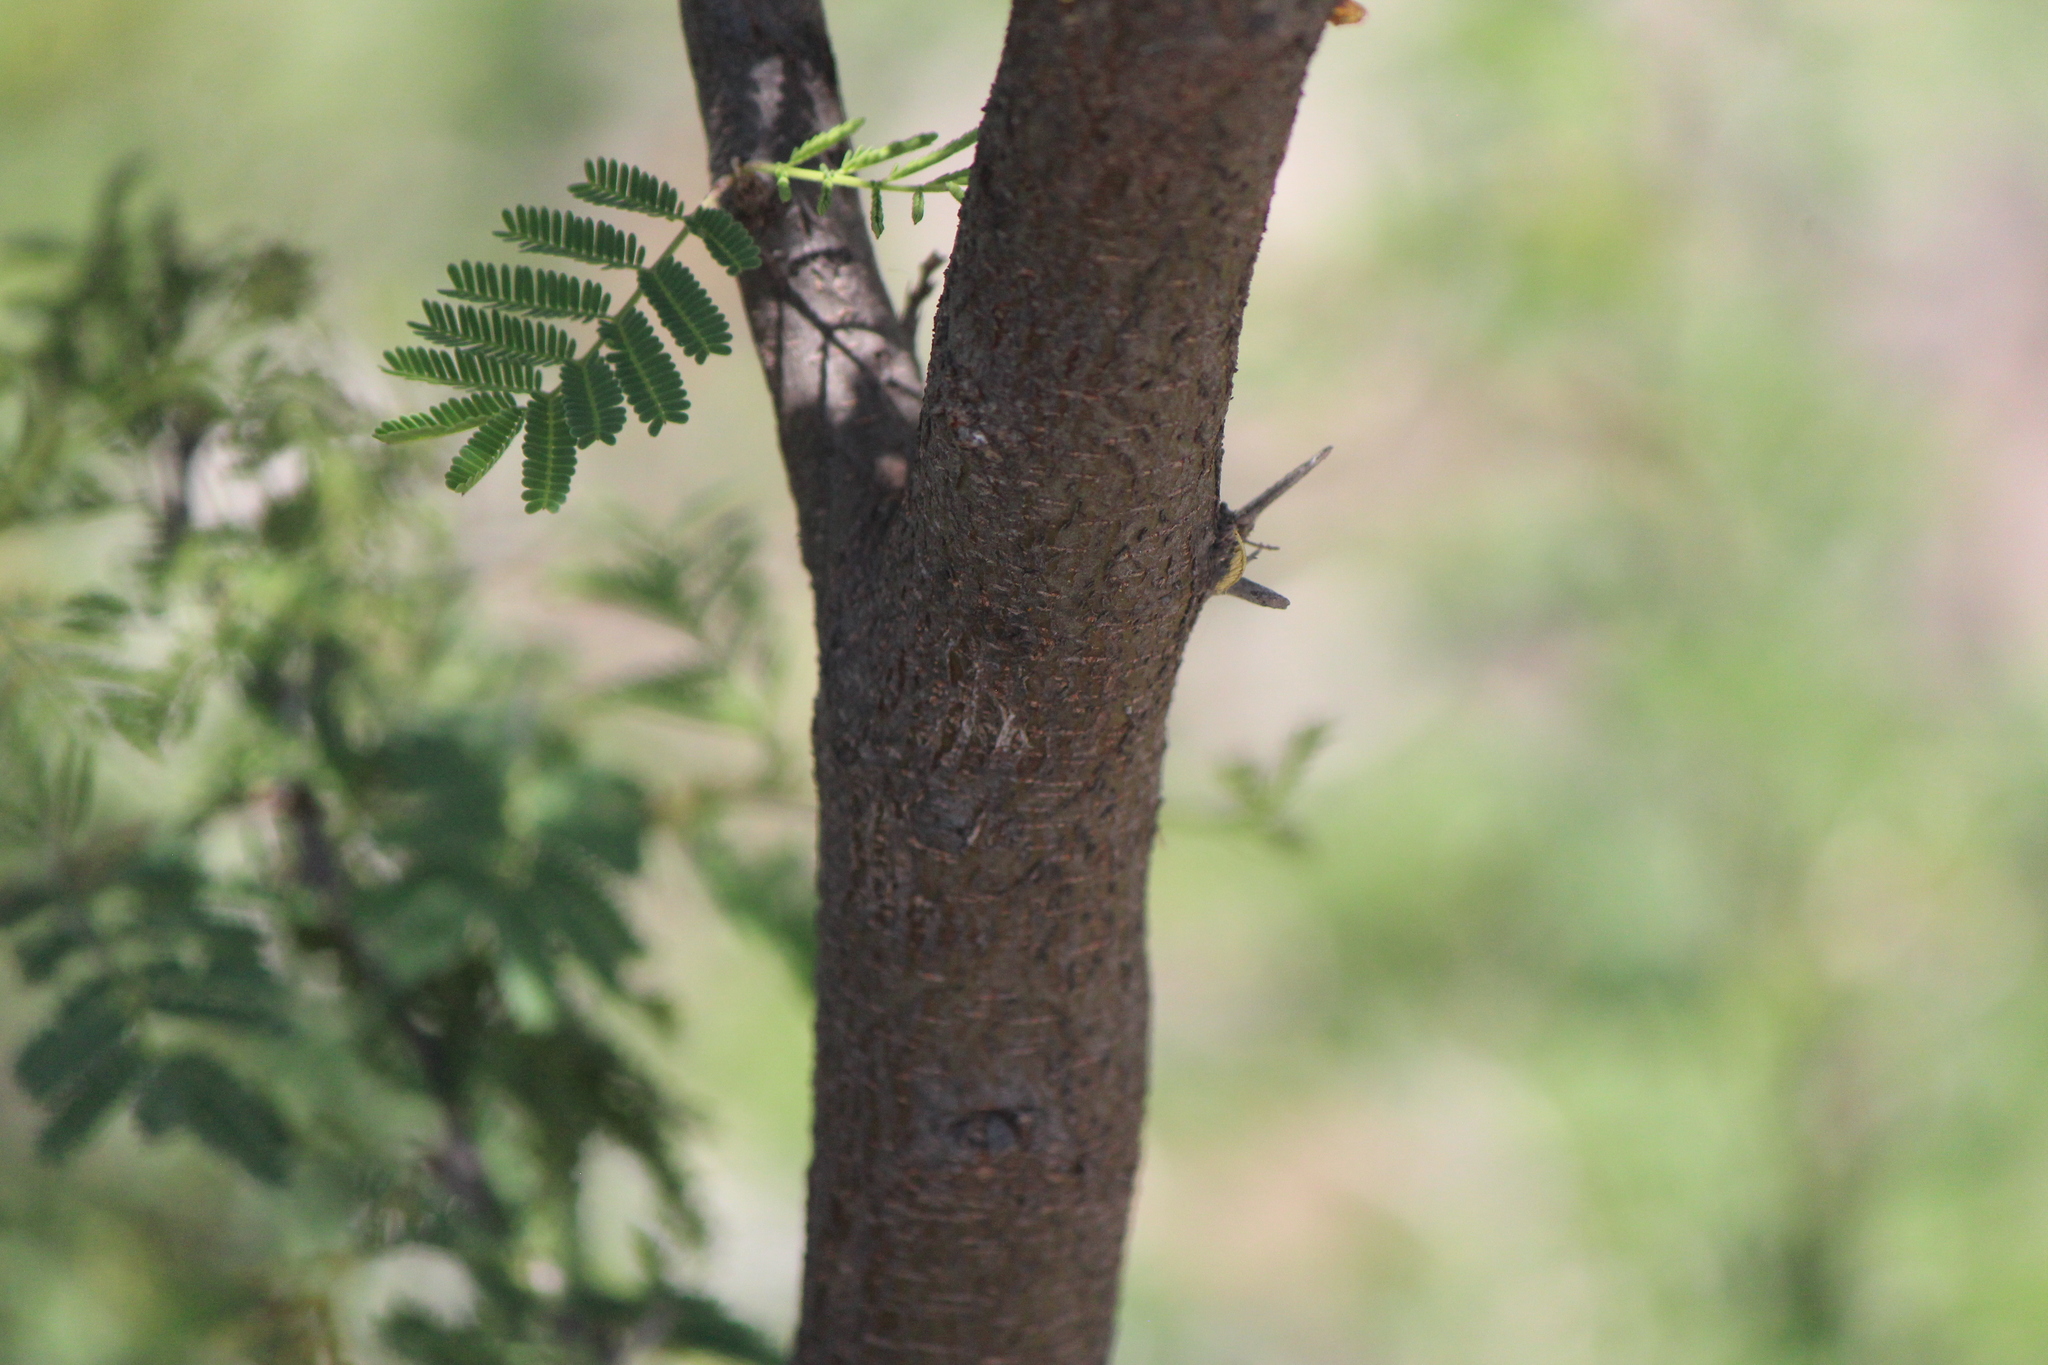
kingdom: Plantae
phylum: Tracheophyta
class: Magnoliopsida
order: Fabales
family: Fabaceae
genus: Vachellia
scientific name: Vachellia farnesiana
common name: Sweet acacia
